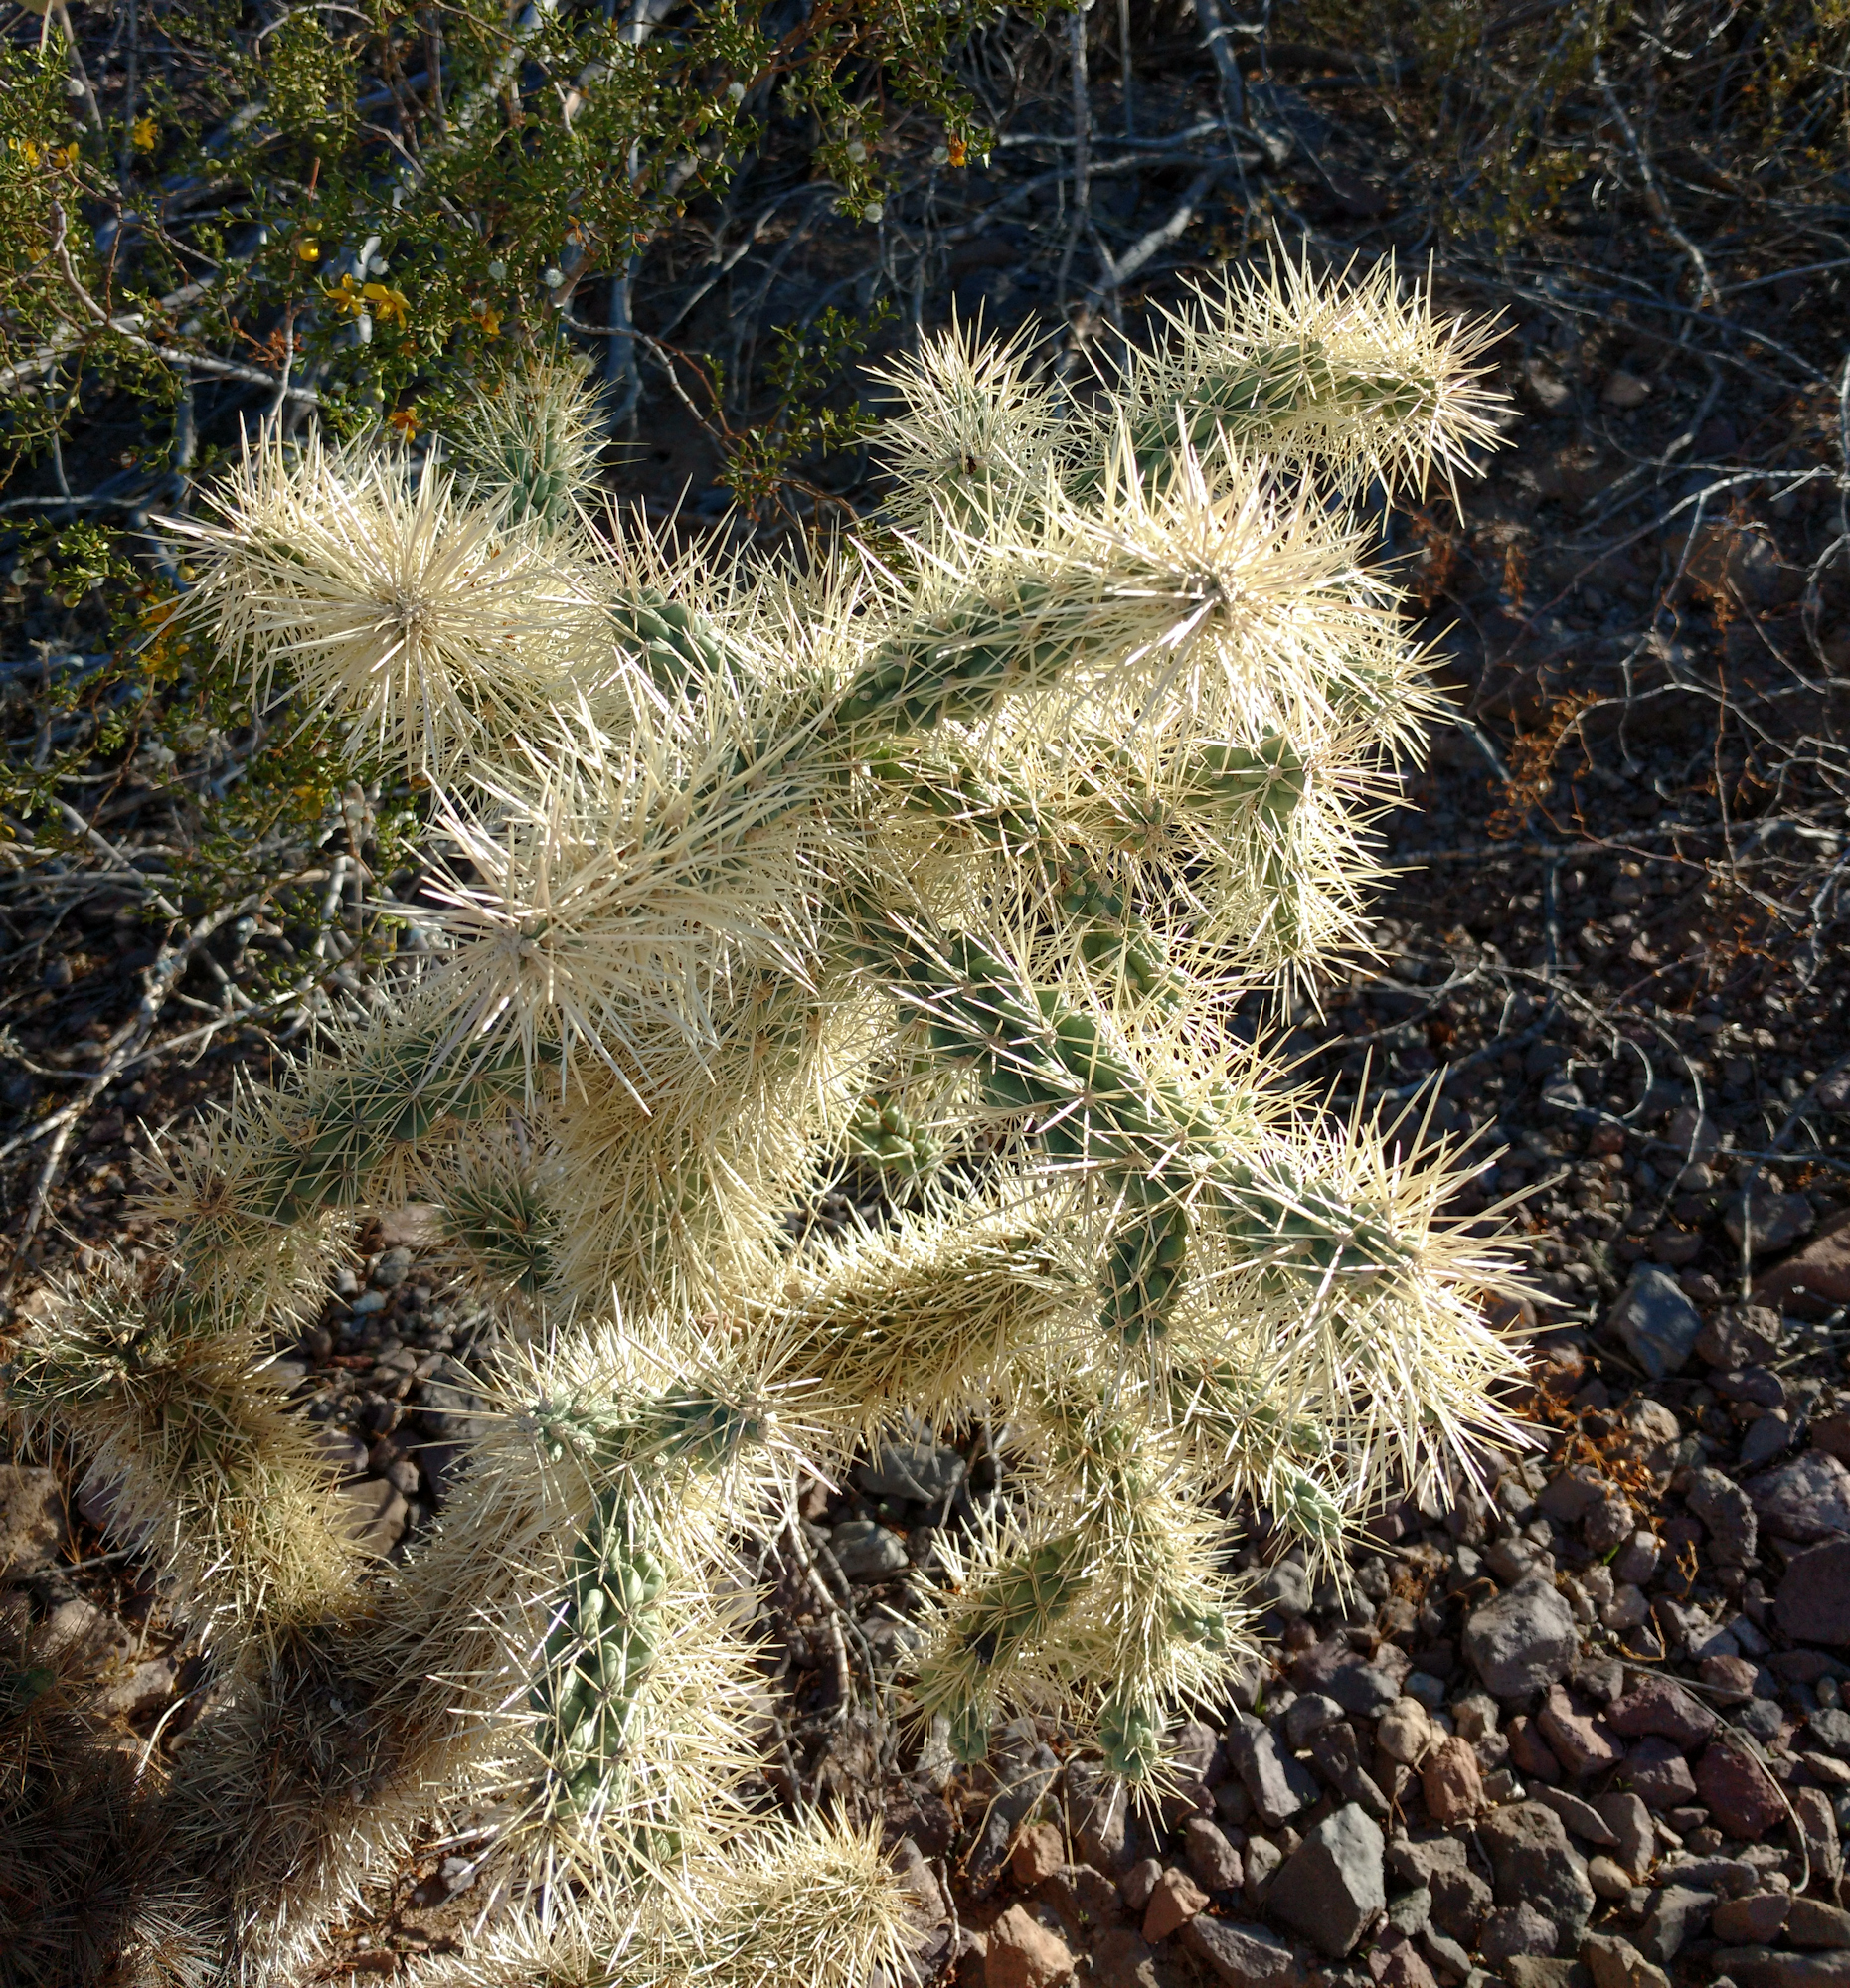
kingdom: Plantae
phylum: Tracheophyta
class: Magnoliopsida
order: Caryophyllales
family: Cactaceae
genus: Cylindropuntia
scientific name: Cylindropuntia fulgida
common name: Jumping cholla
